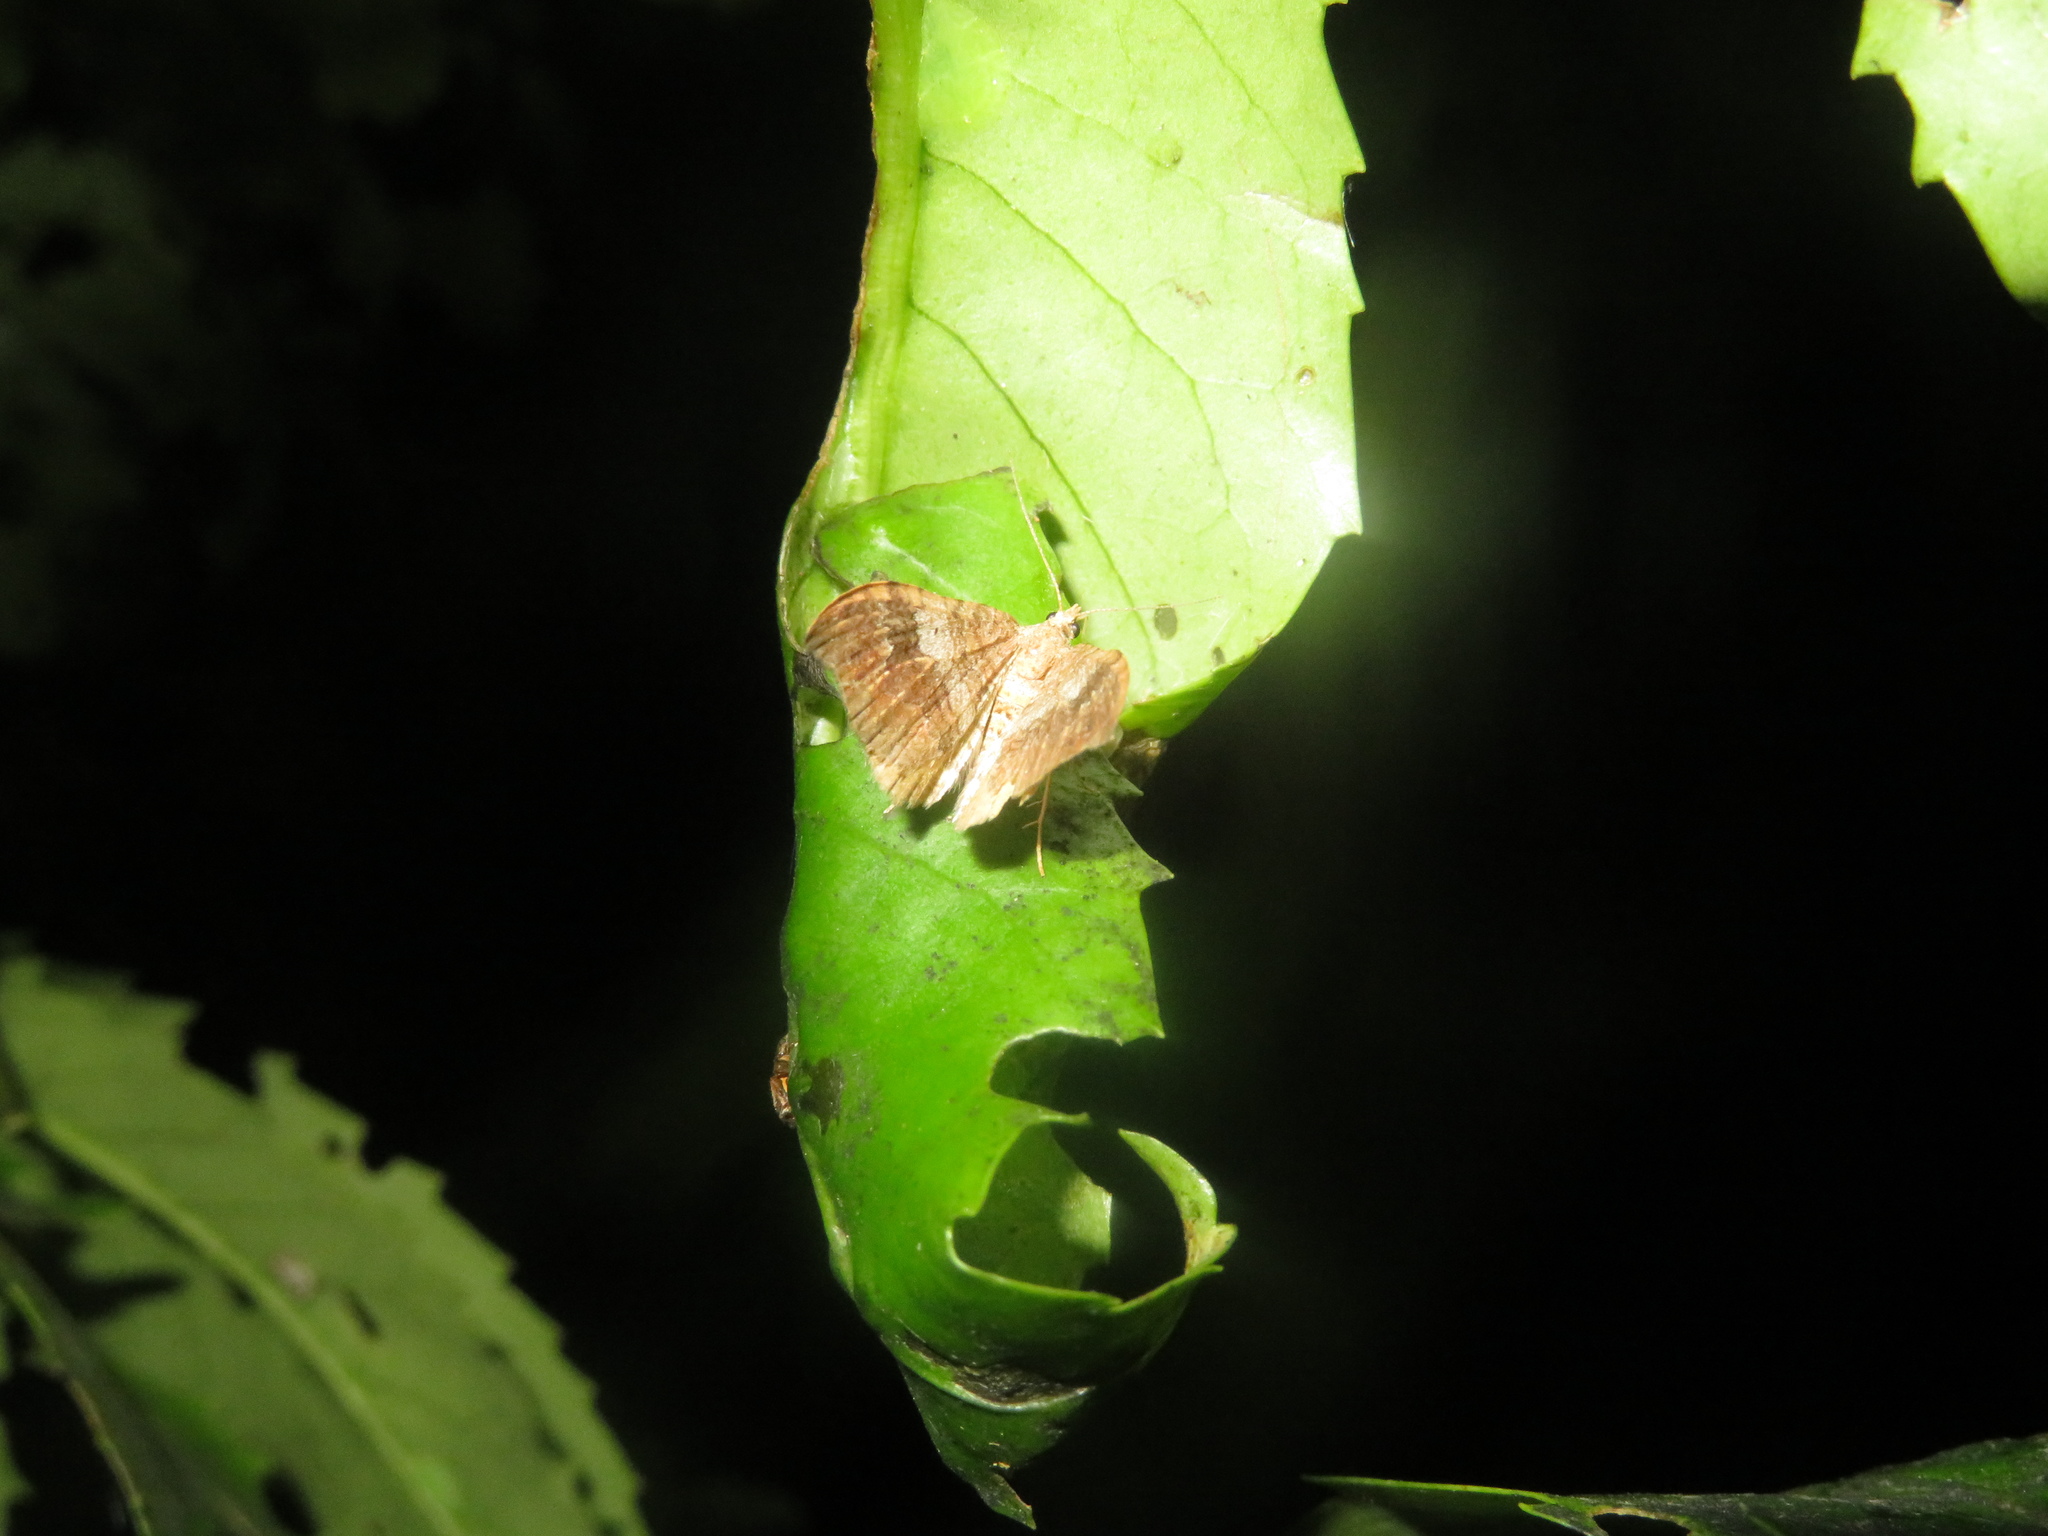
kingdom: Animalia
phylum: Arthropoda
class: Insecta
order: Lepidoptera
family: Geometridae
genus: Homodotis
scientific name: Homodotis megaspilata
